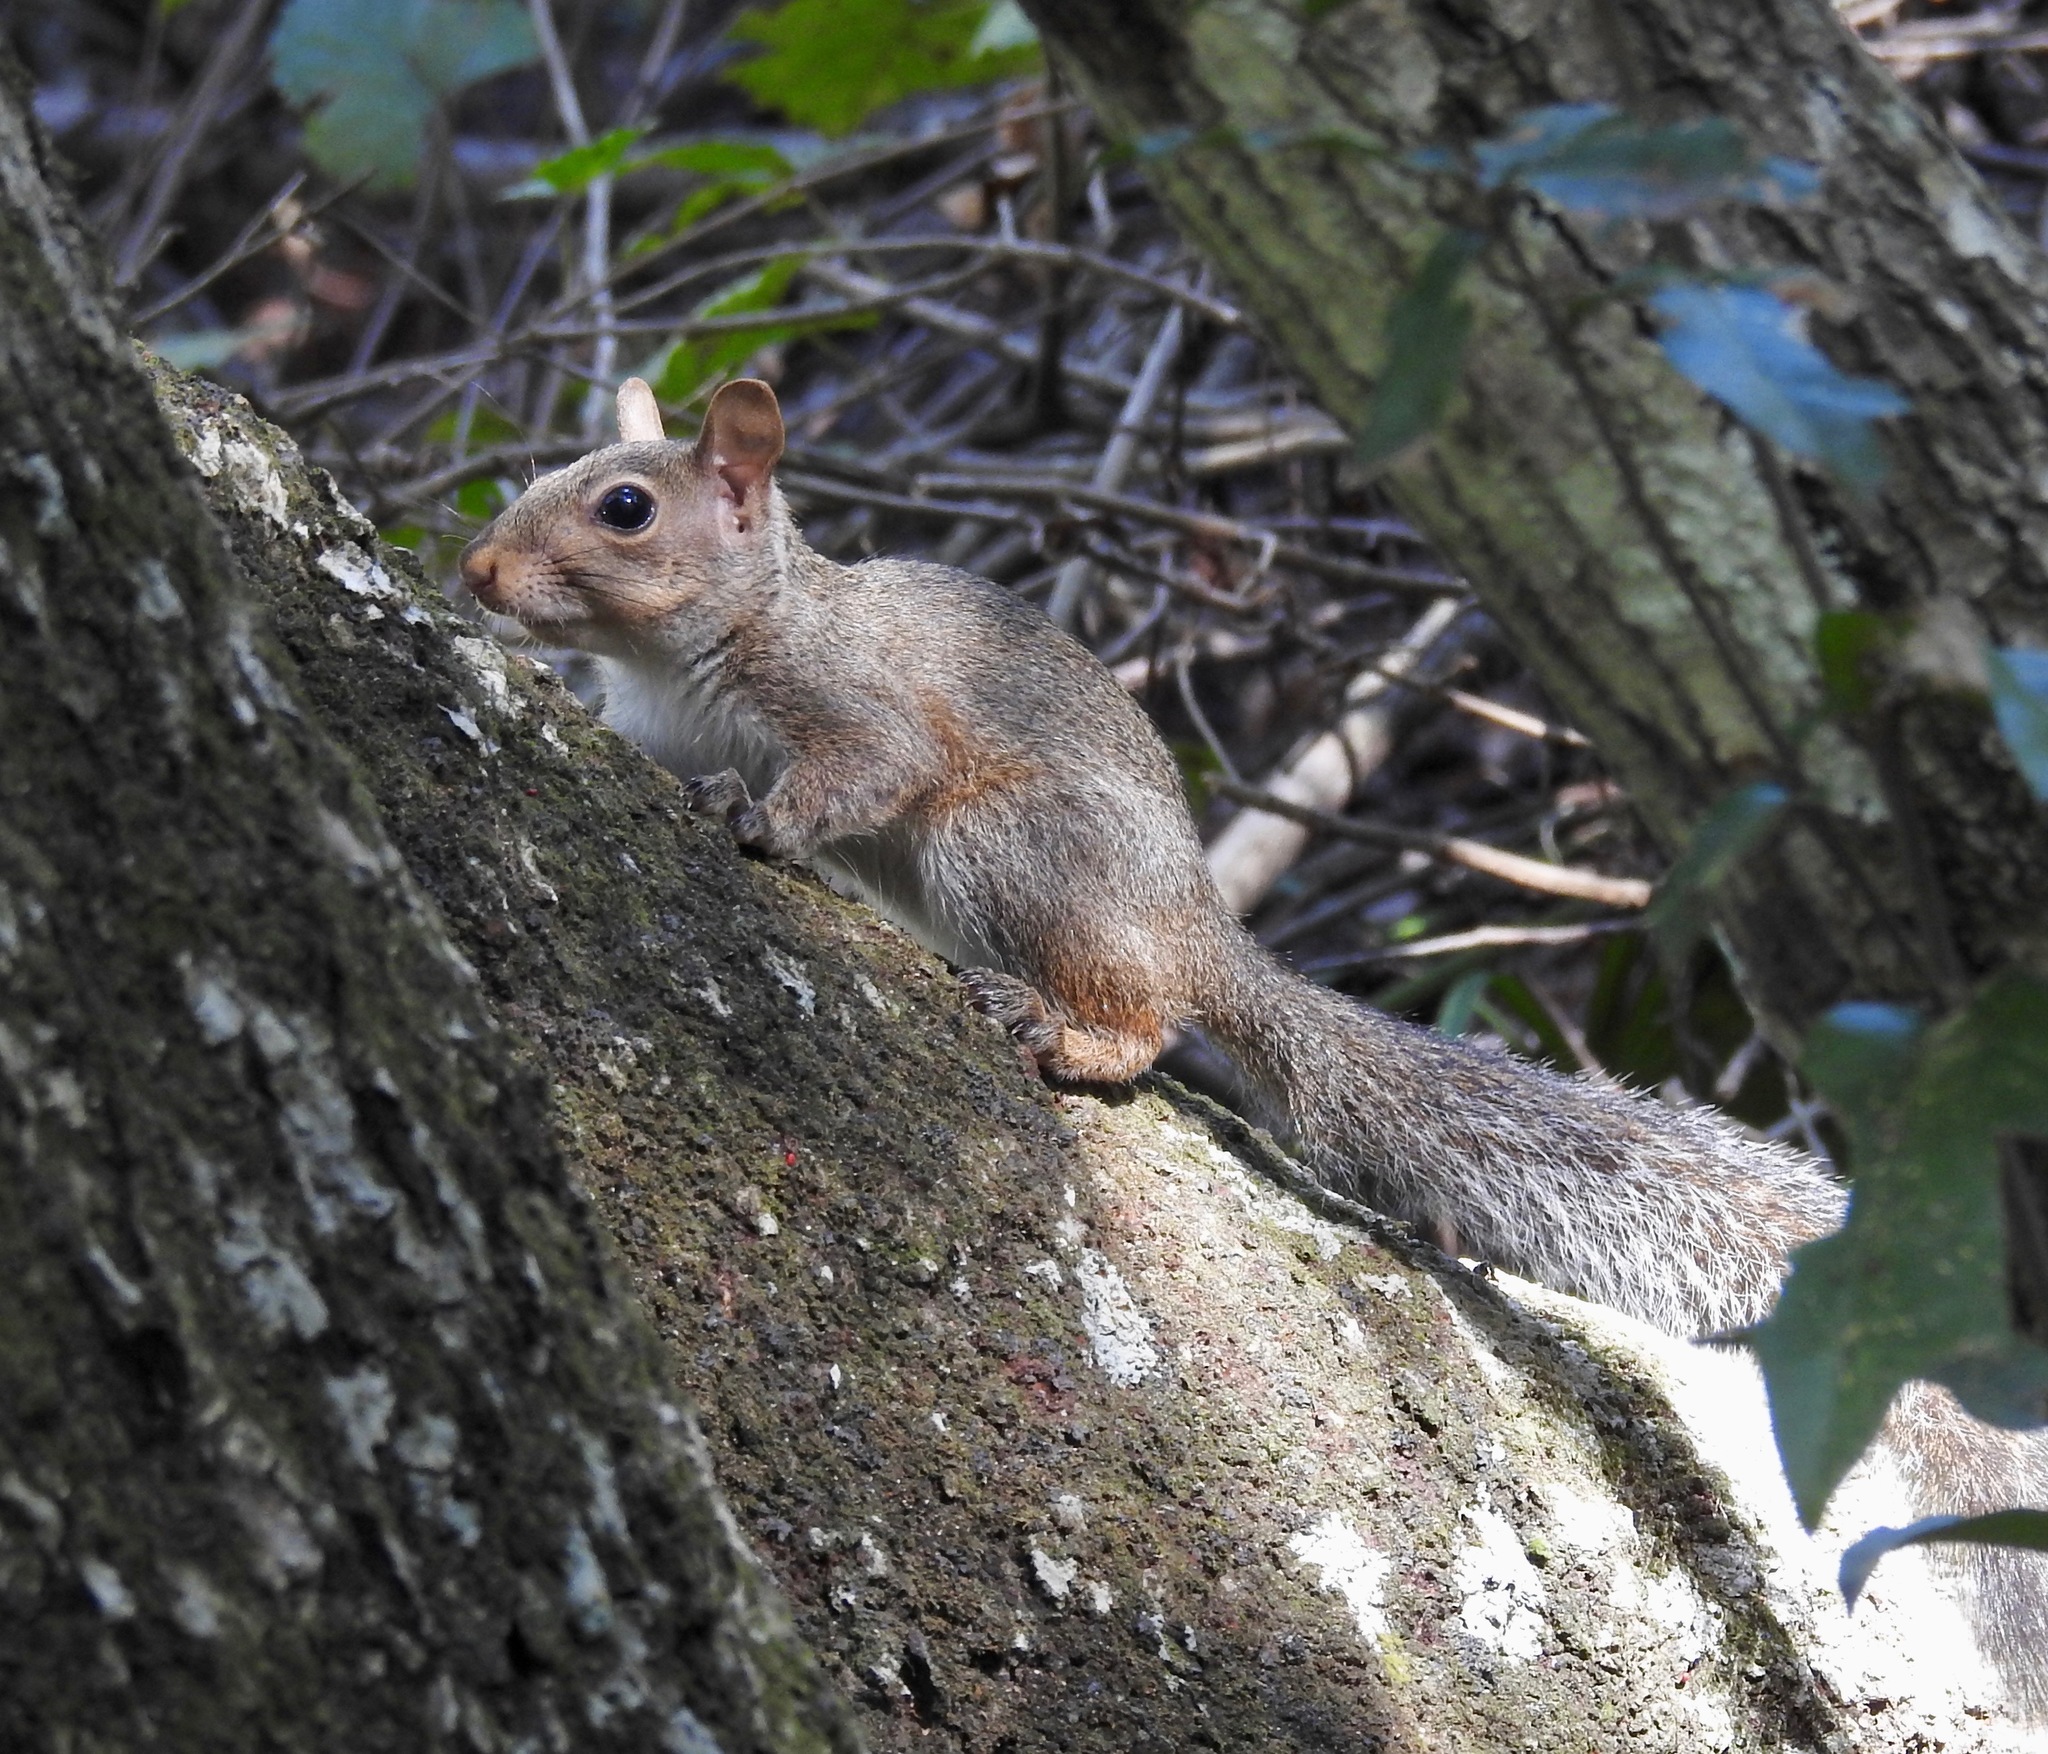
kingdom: Animalia
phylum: Chordata
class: Mammalia
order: Rodentia
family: Sciuridae
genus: Sciurus
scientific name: Sciurus carolinensis
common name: Eastern gray squirrel
